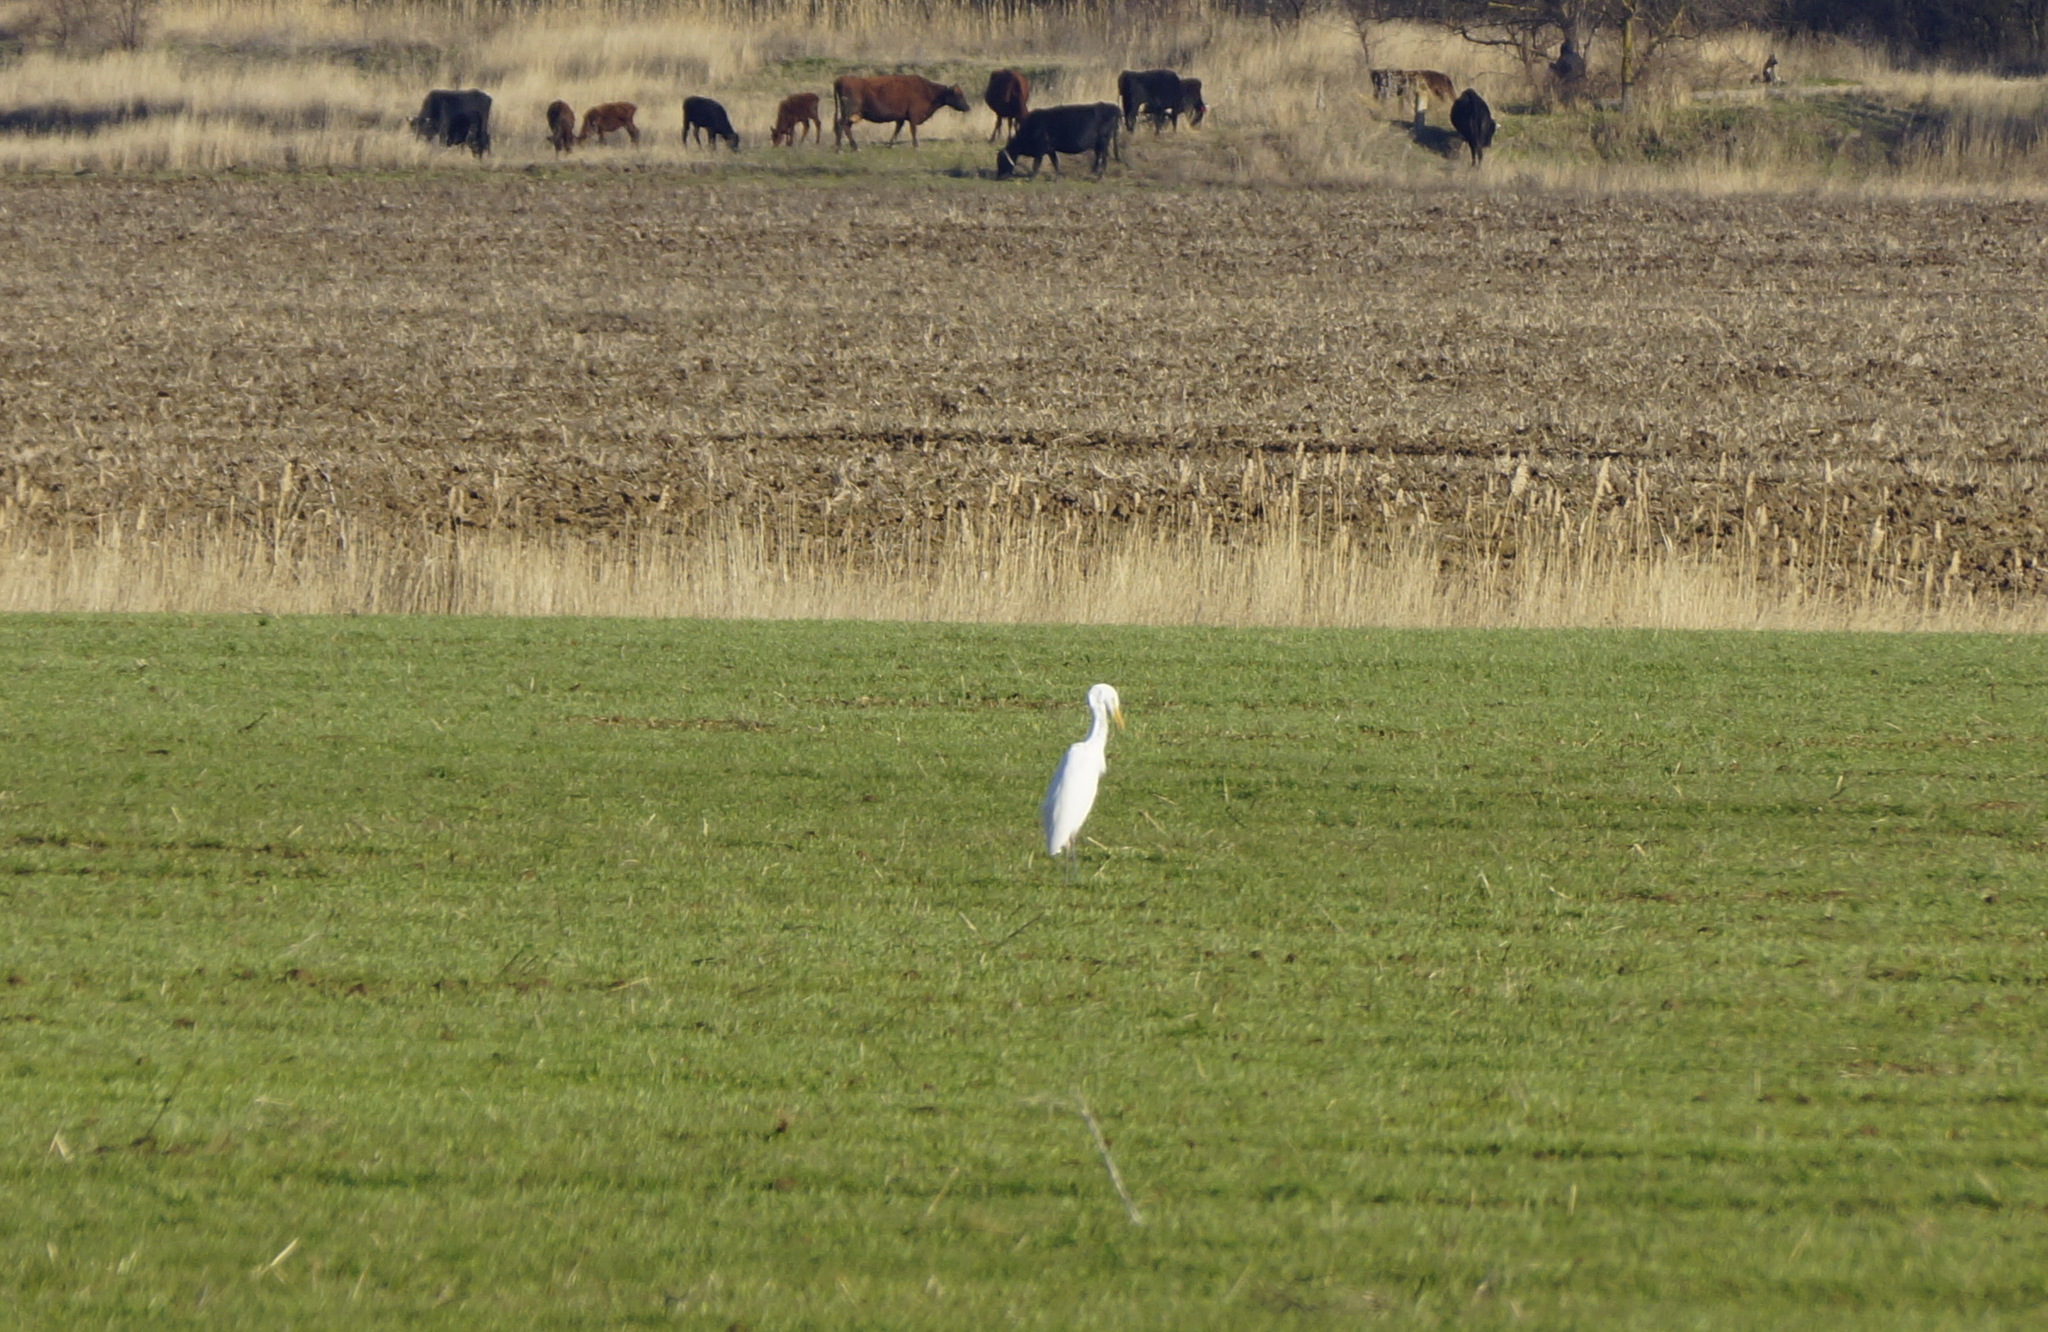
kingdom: Animalia
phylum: Chordata
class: Aves
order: Pelecaniformes
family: Ardeidae
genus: Ardea
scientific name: Ardea alba
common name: Great egret
